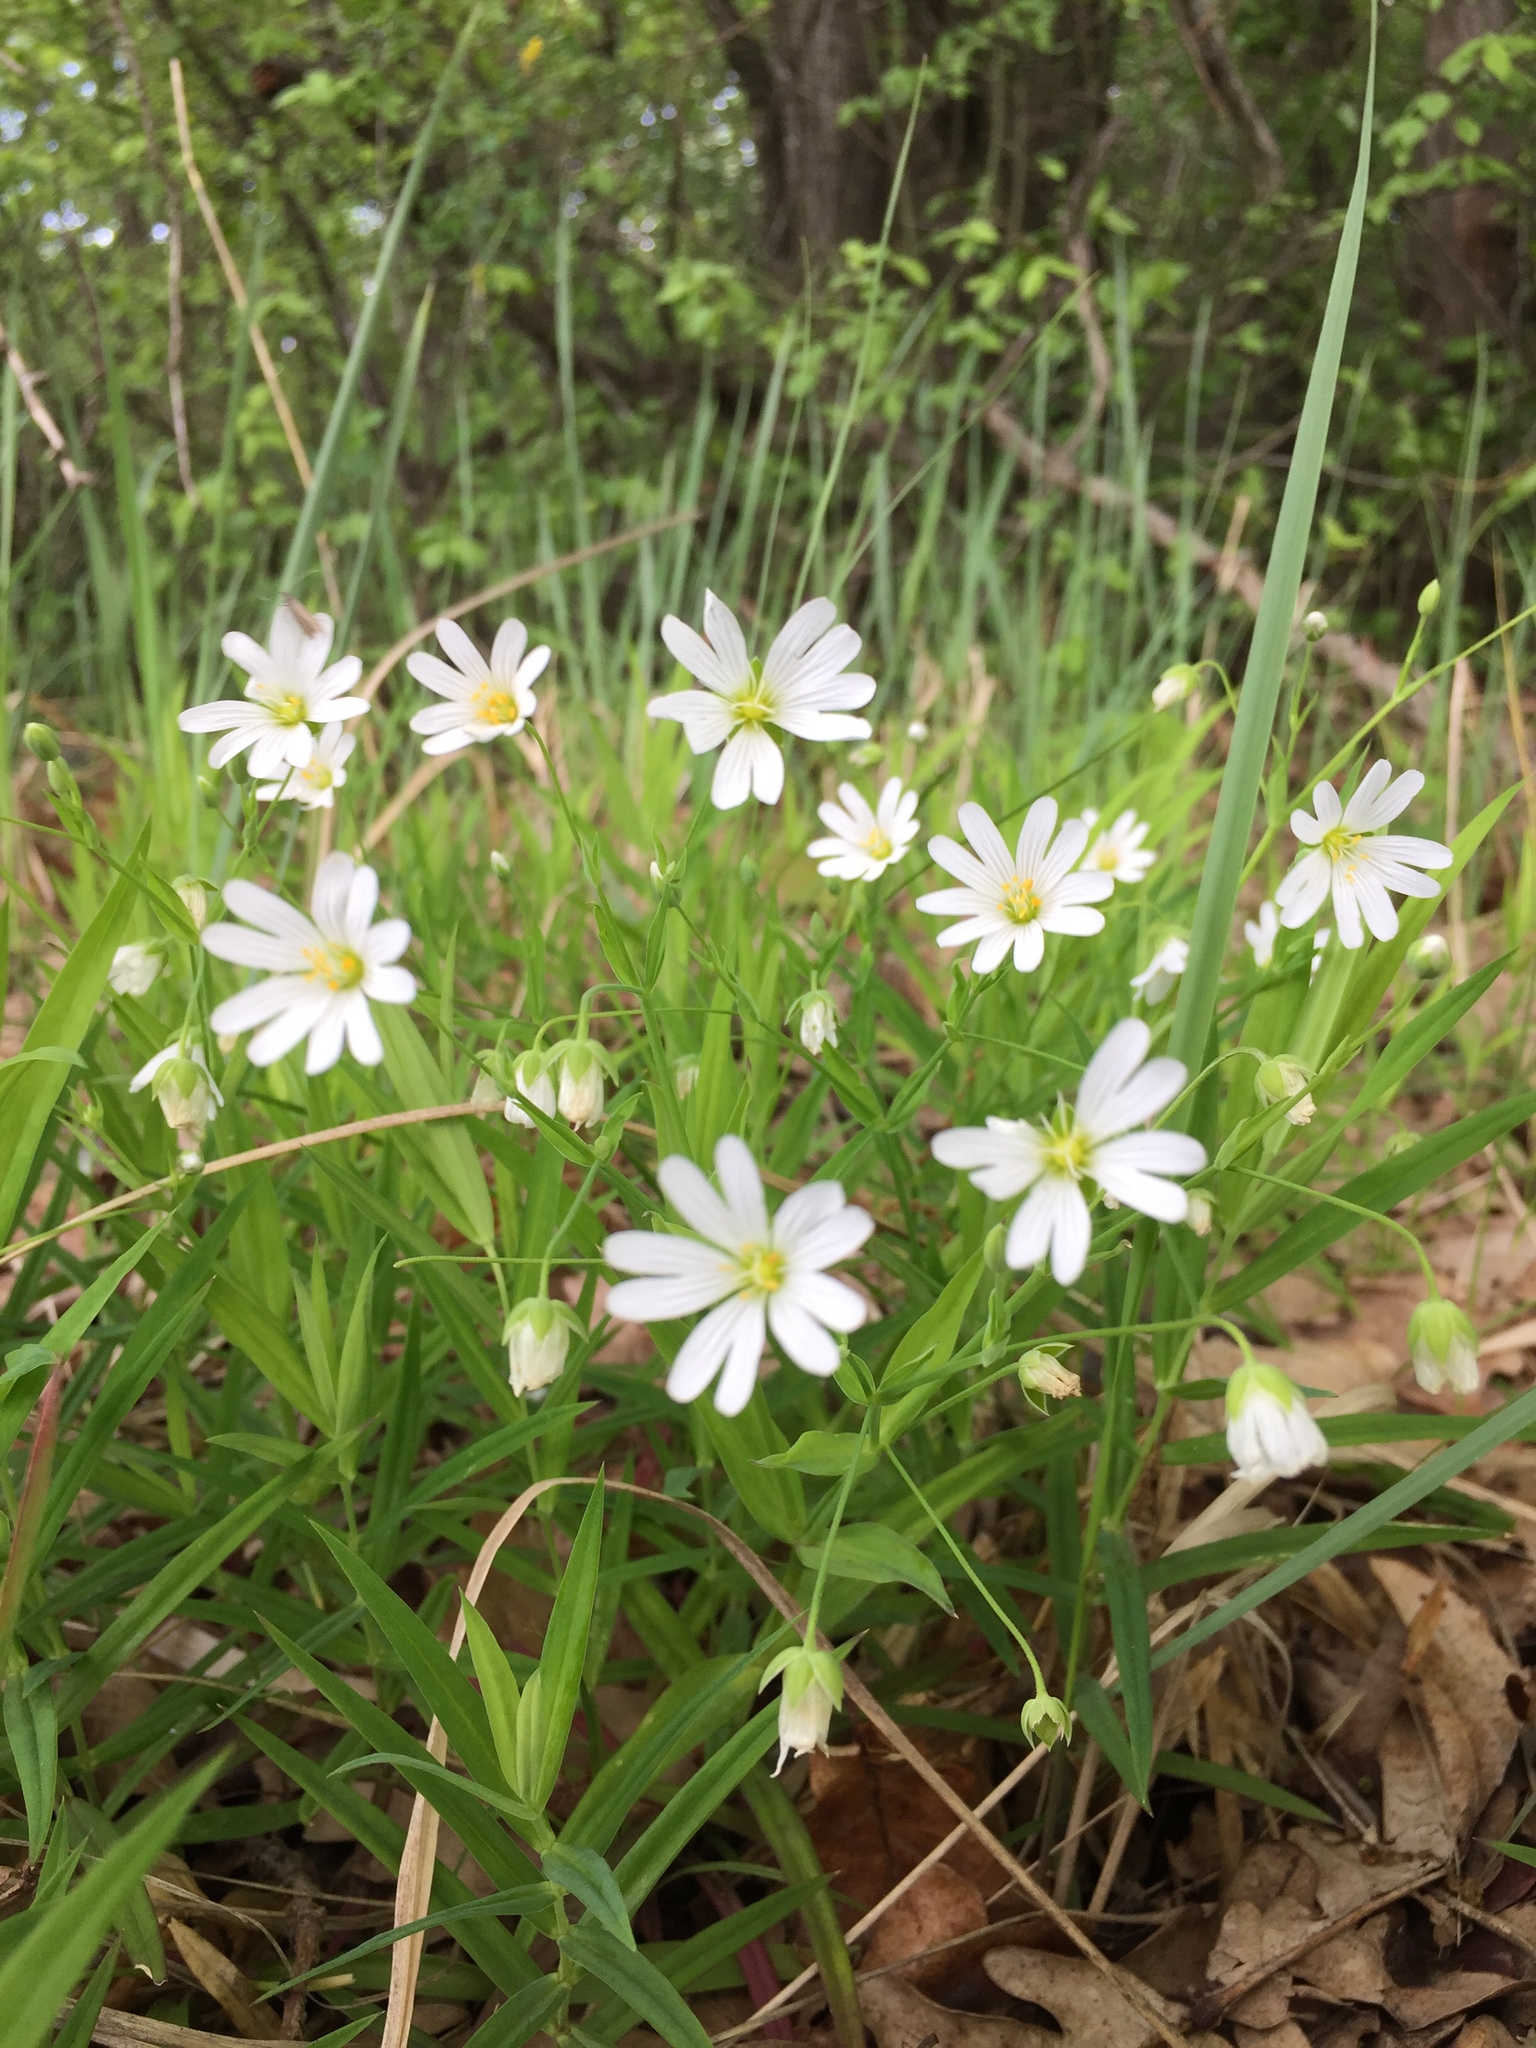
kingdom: Plantae
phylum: Tracheophyta
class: Magnoliopsida
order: Caryophyllales
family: Caryophyllaceae
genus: Rabelera
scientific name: Rabelera holostea
